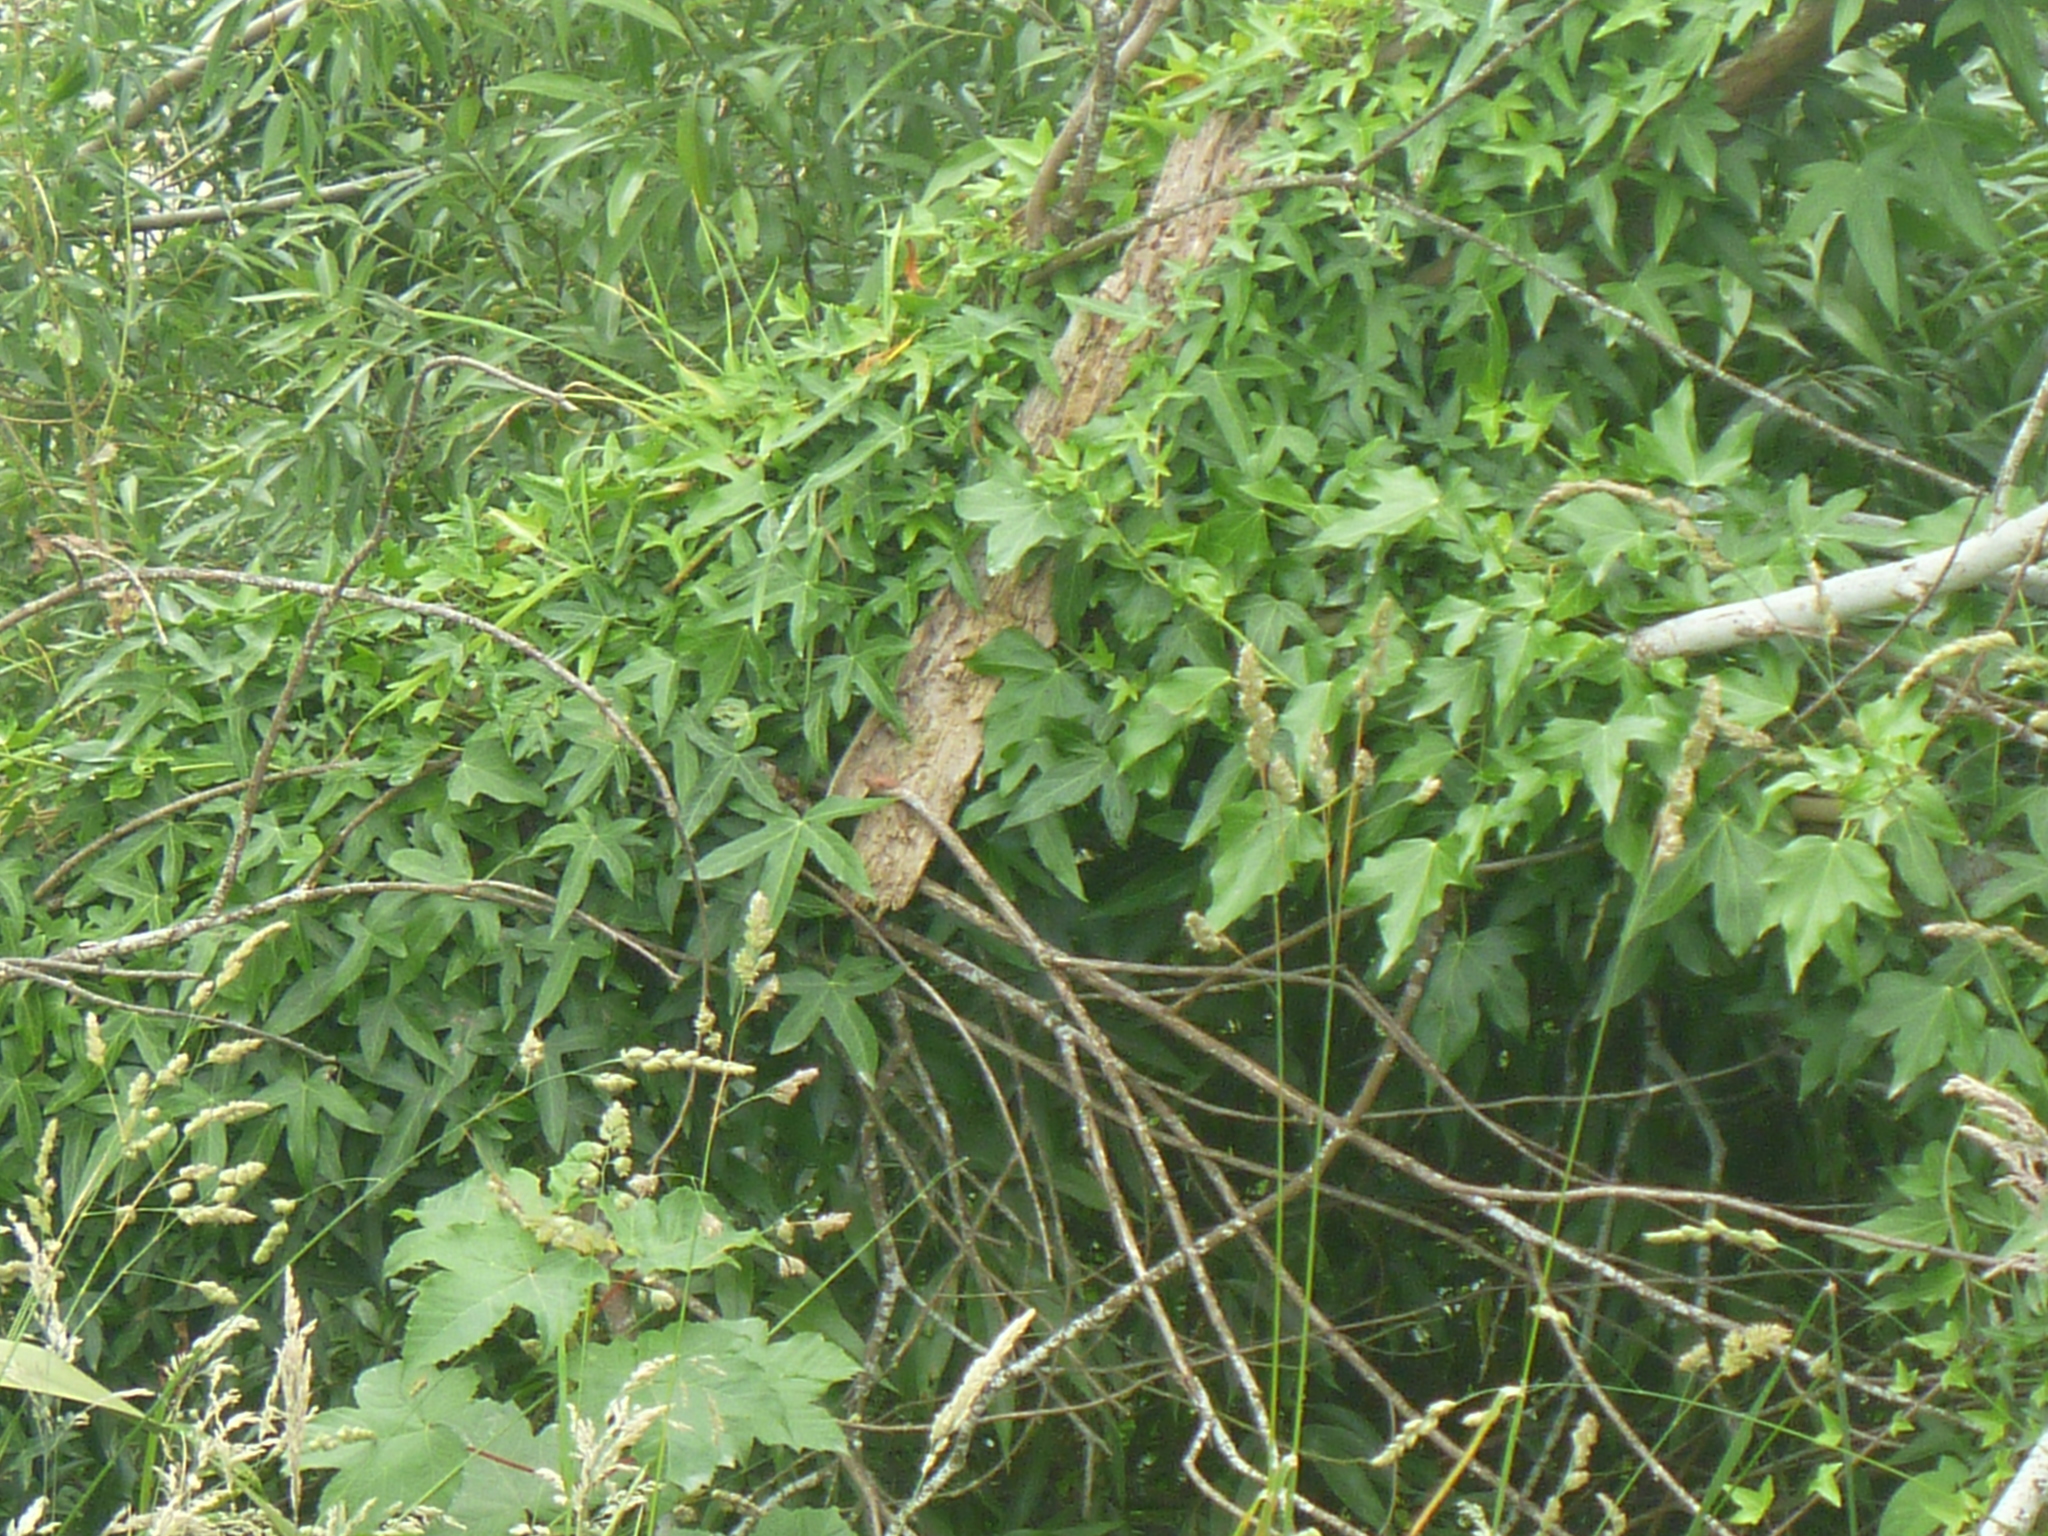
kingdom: Plantae
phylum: Tracheophyta
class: Magnoliopsida
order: Apiales
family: Araliaceae
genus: Hedera
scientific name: Hedera helix
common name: Ivy
